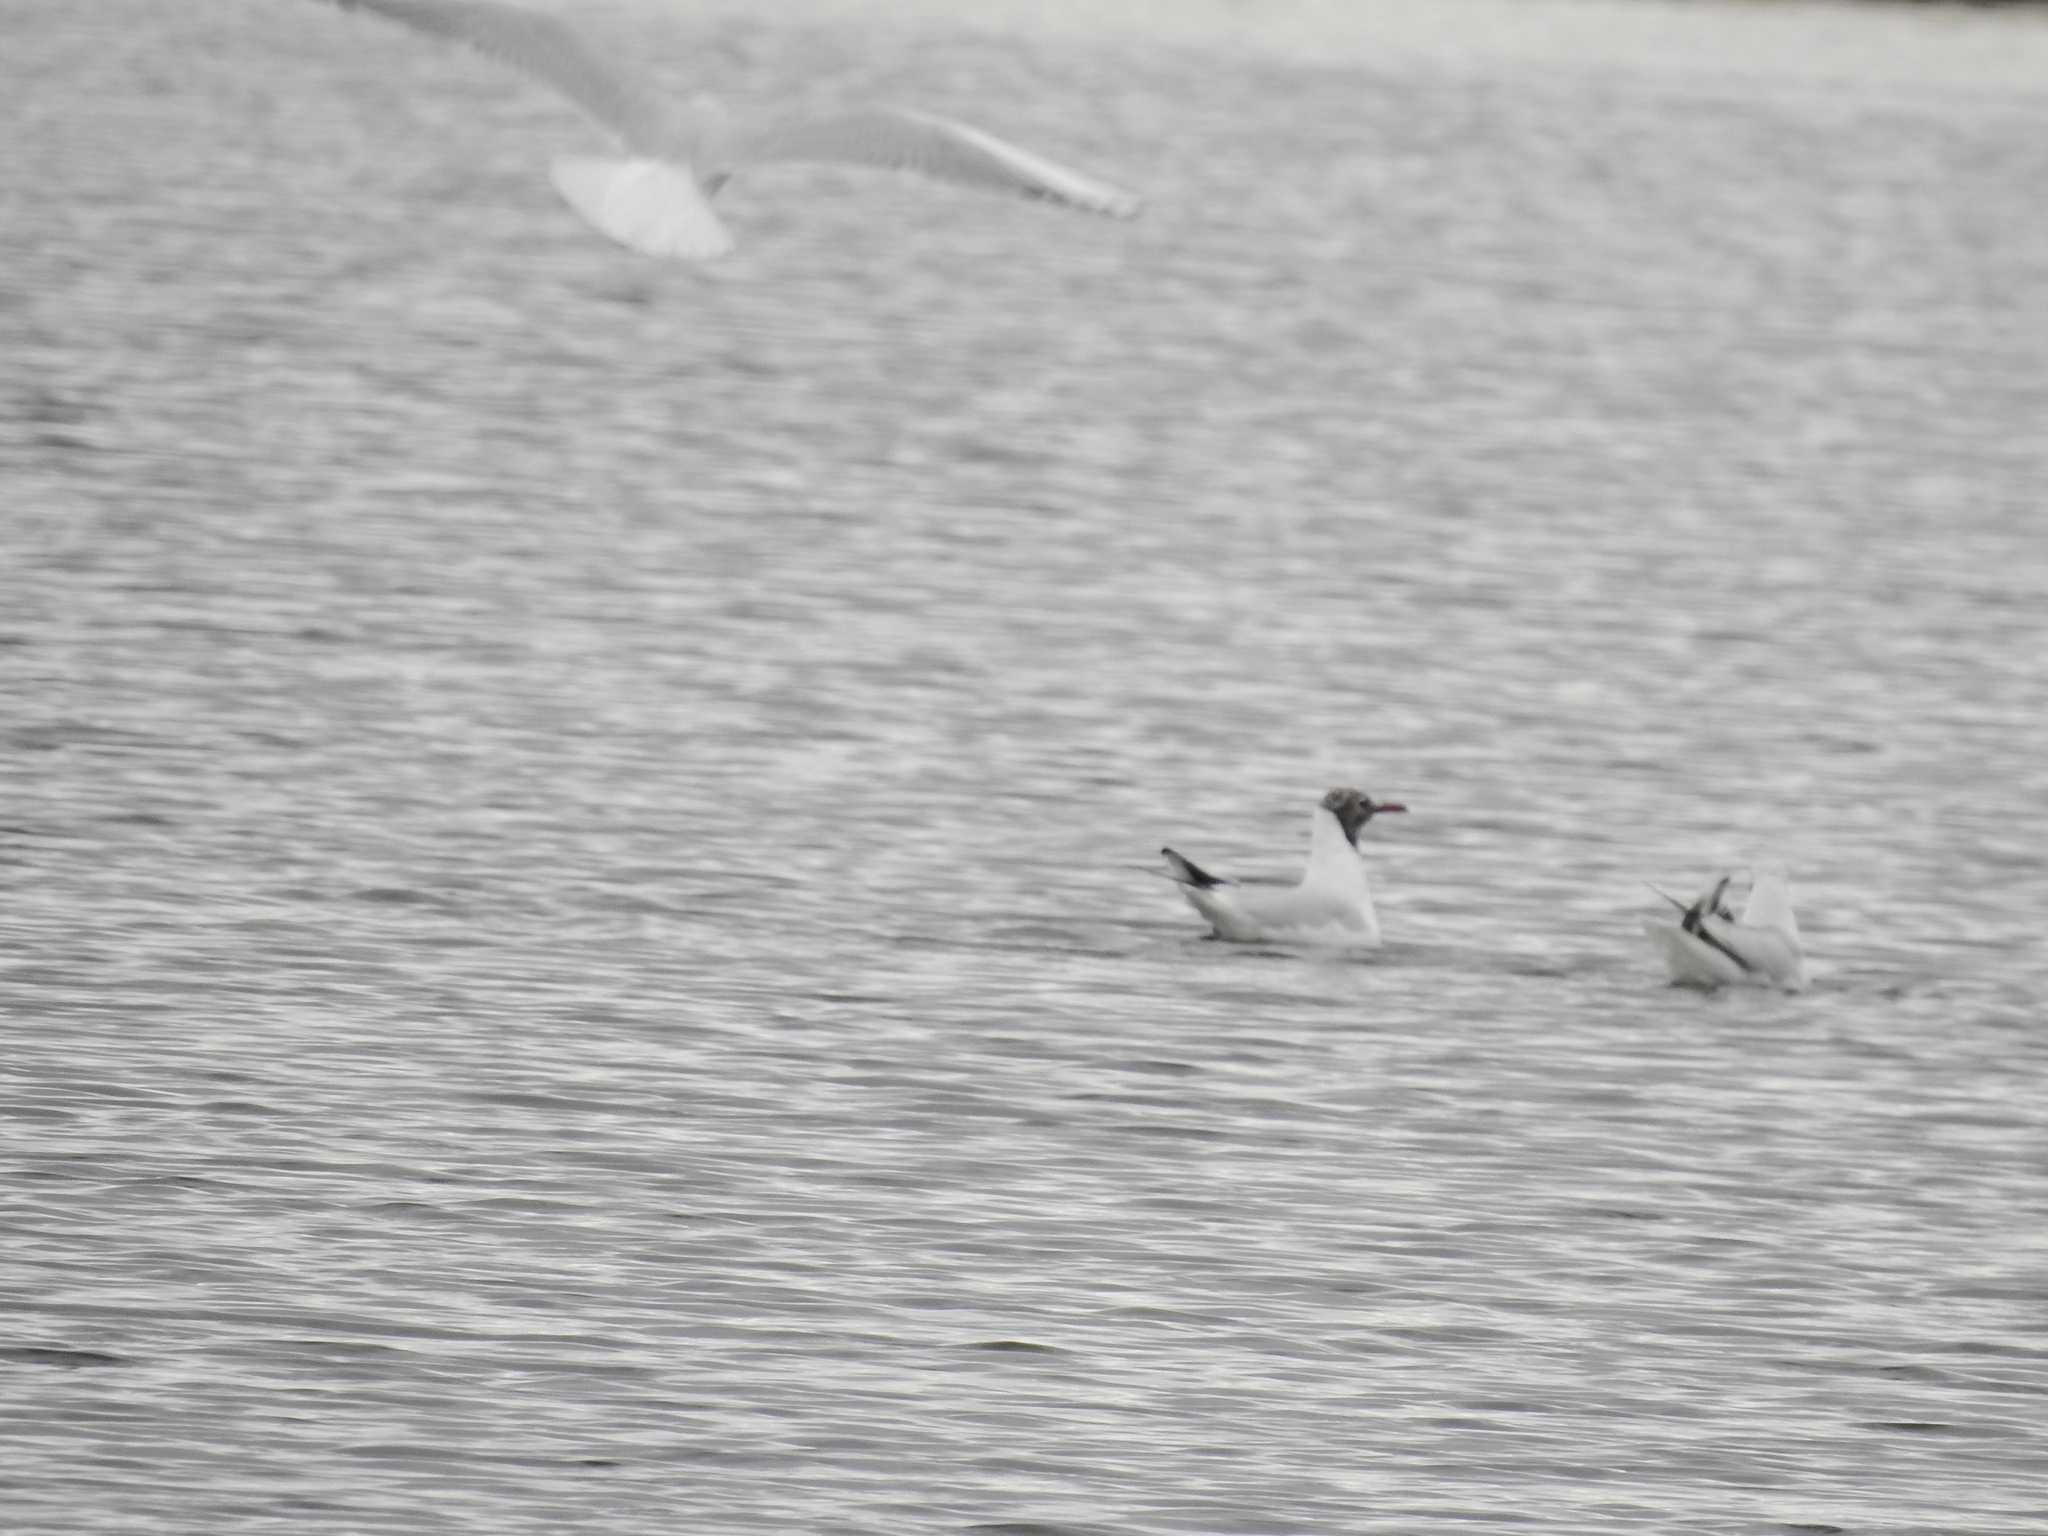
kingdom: Animalia
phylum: Chordata
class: Aves
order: Charadriiformes
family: Laridae
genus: Chroicocephalus
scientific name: Chroicocephalus ridibundus
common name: Black-headed gull
